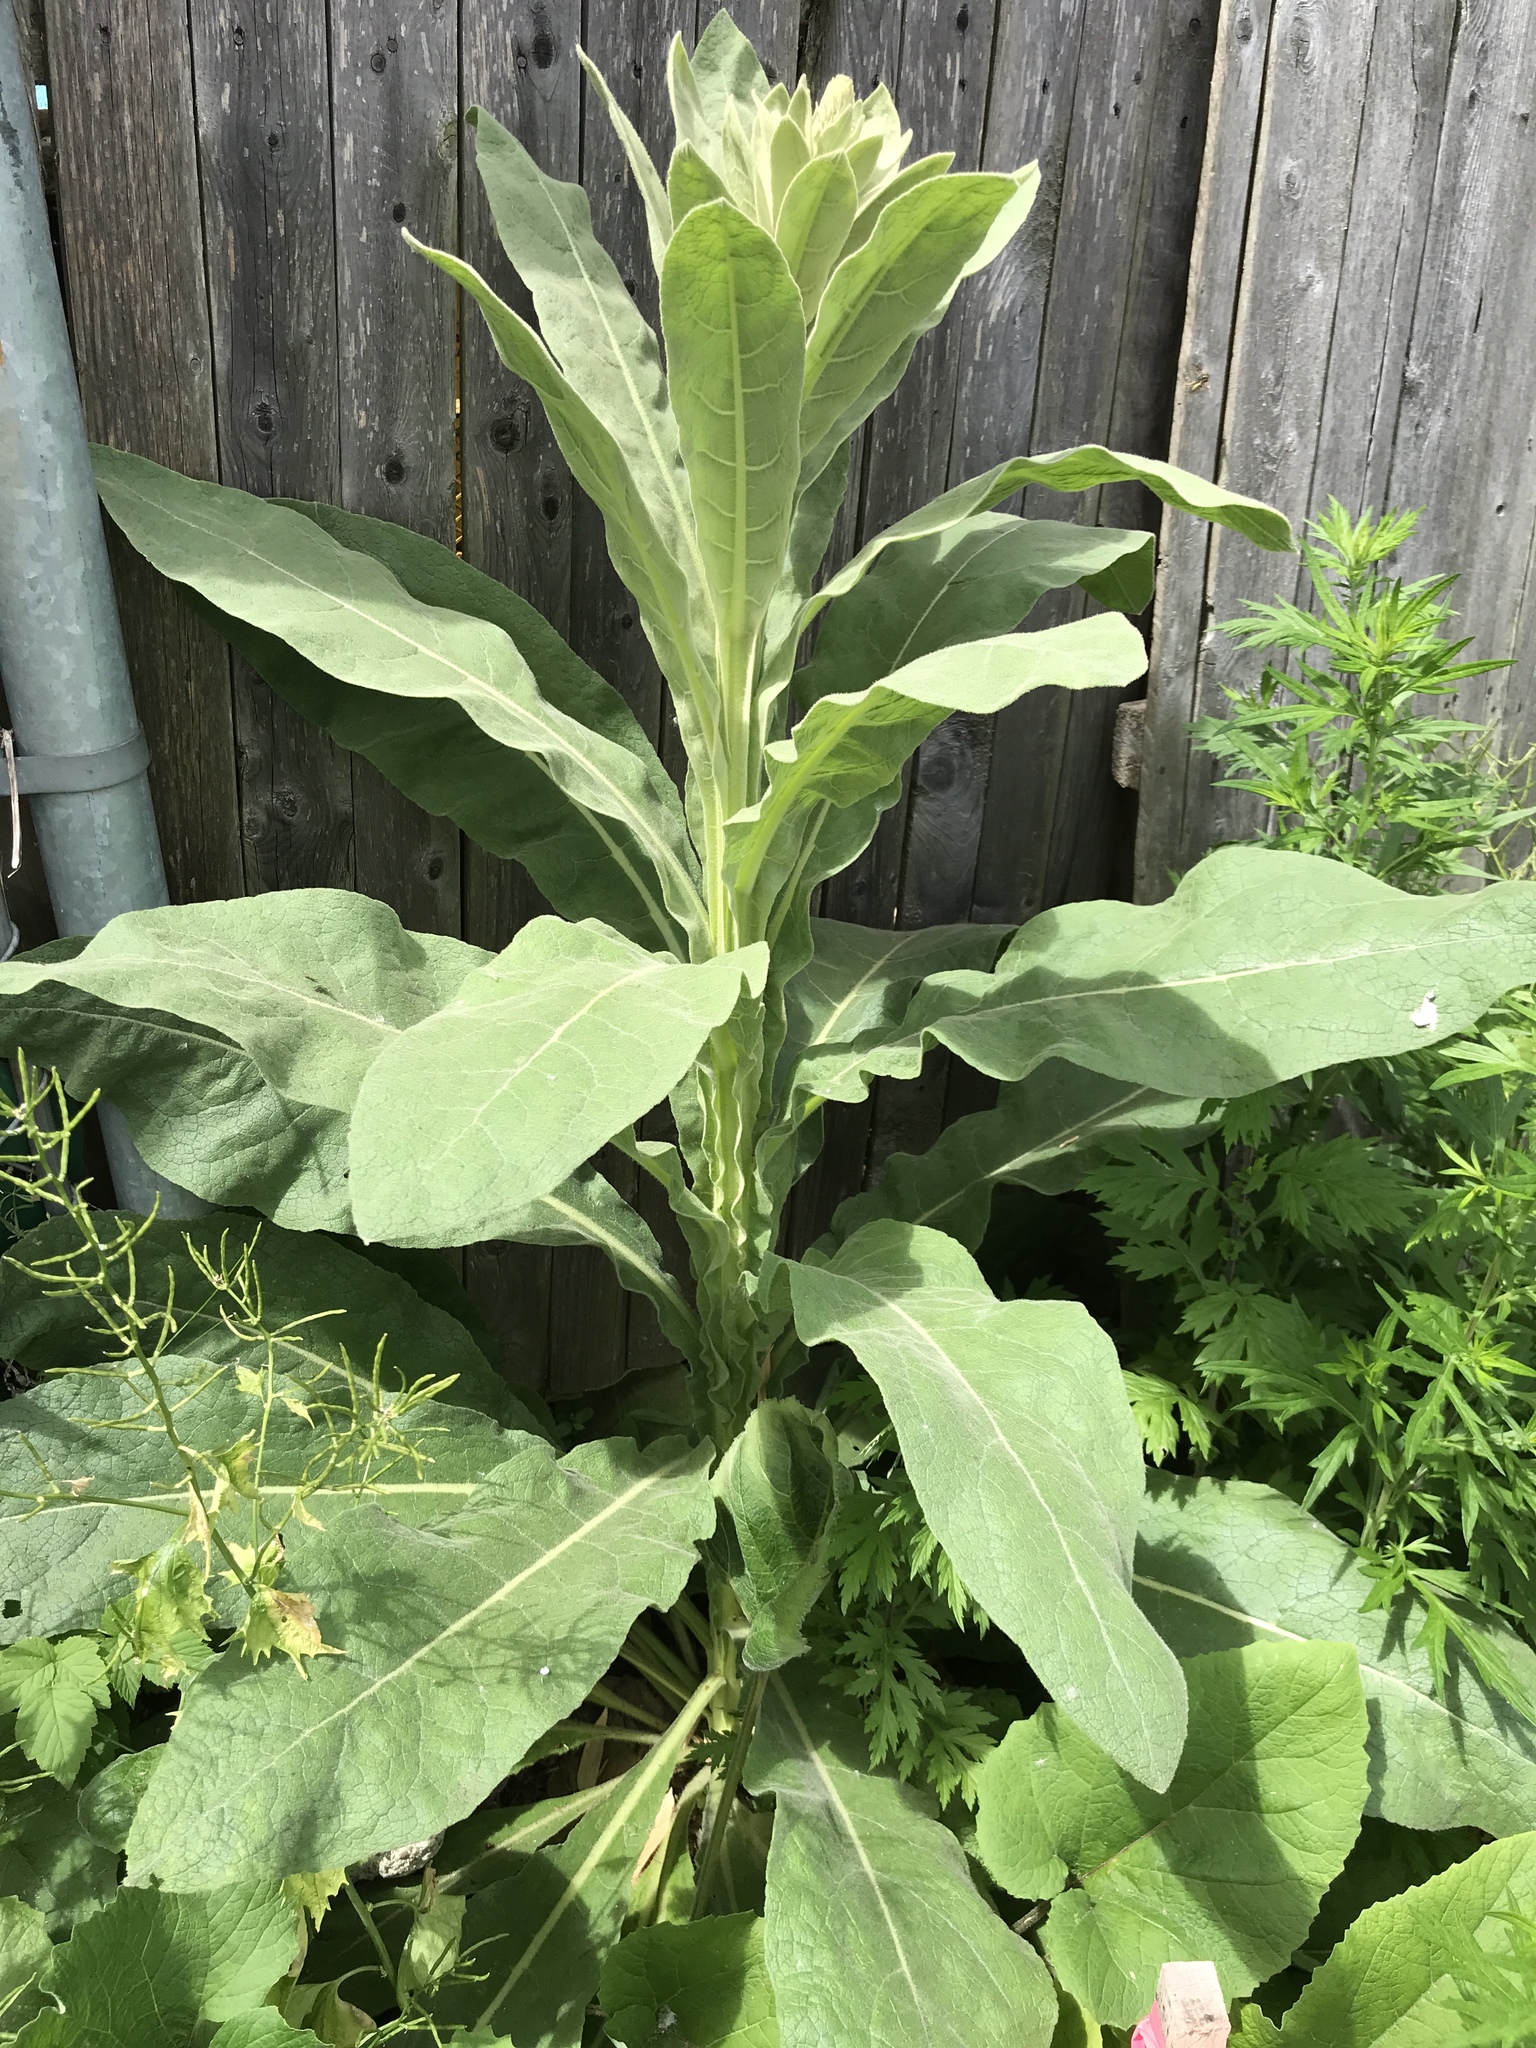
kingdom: Plantae
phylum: Tracheophyta
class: Magnoliopsida
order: Lamiales
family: Scrophulariaceae
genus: Verbascum
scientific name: Verbascum thapsus
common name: Common mullein
